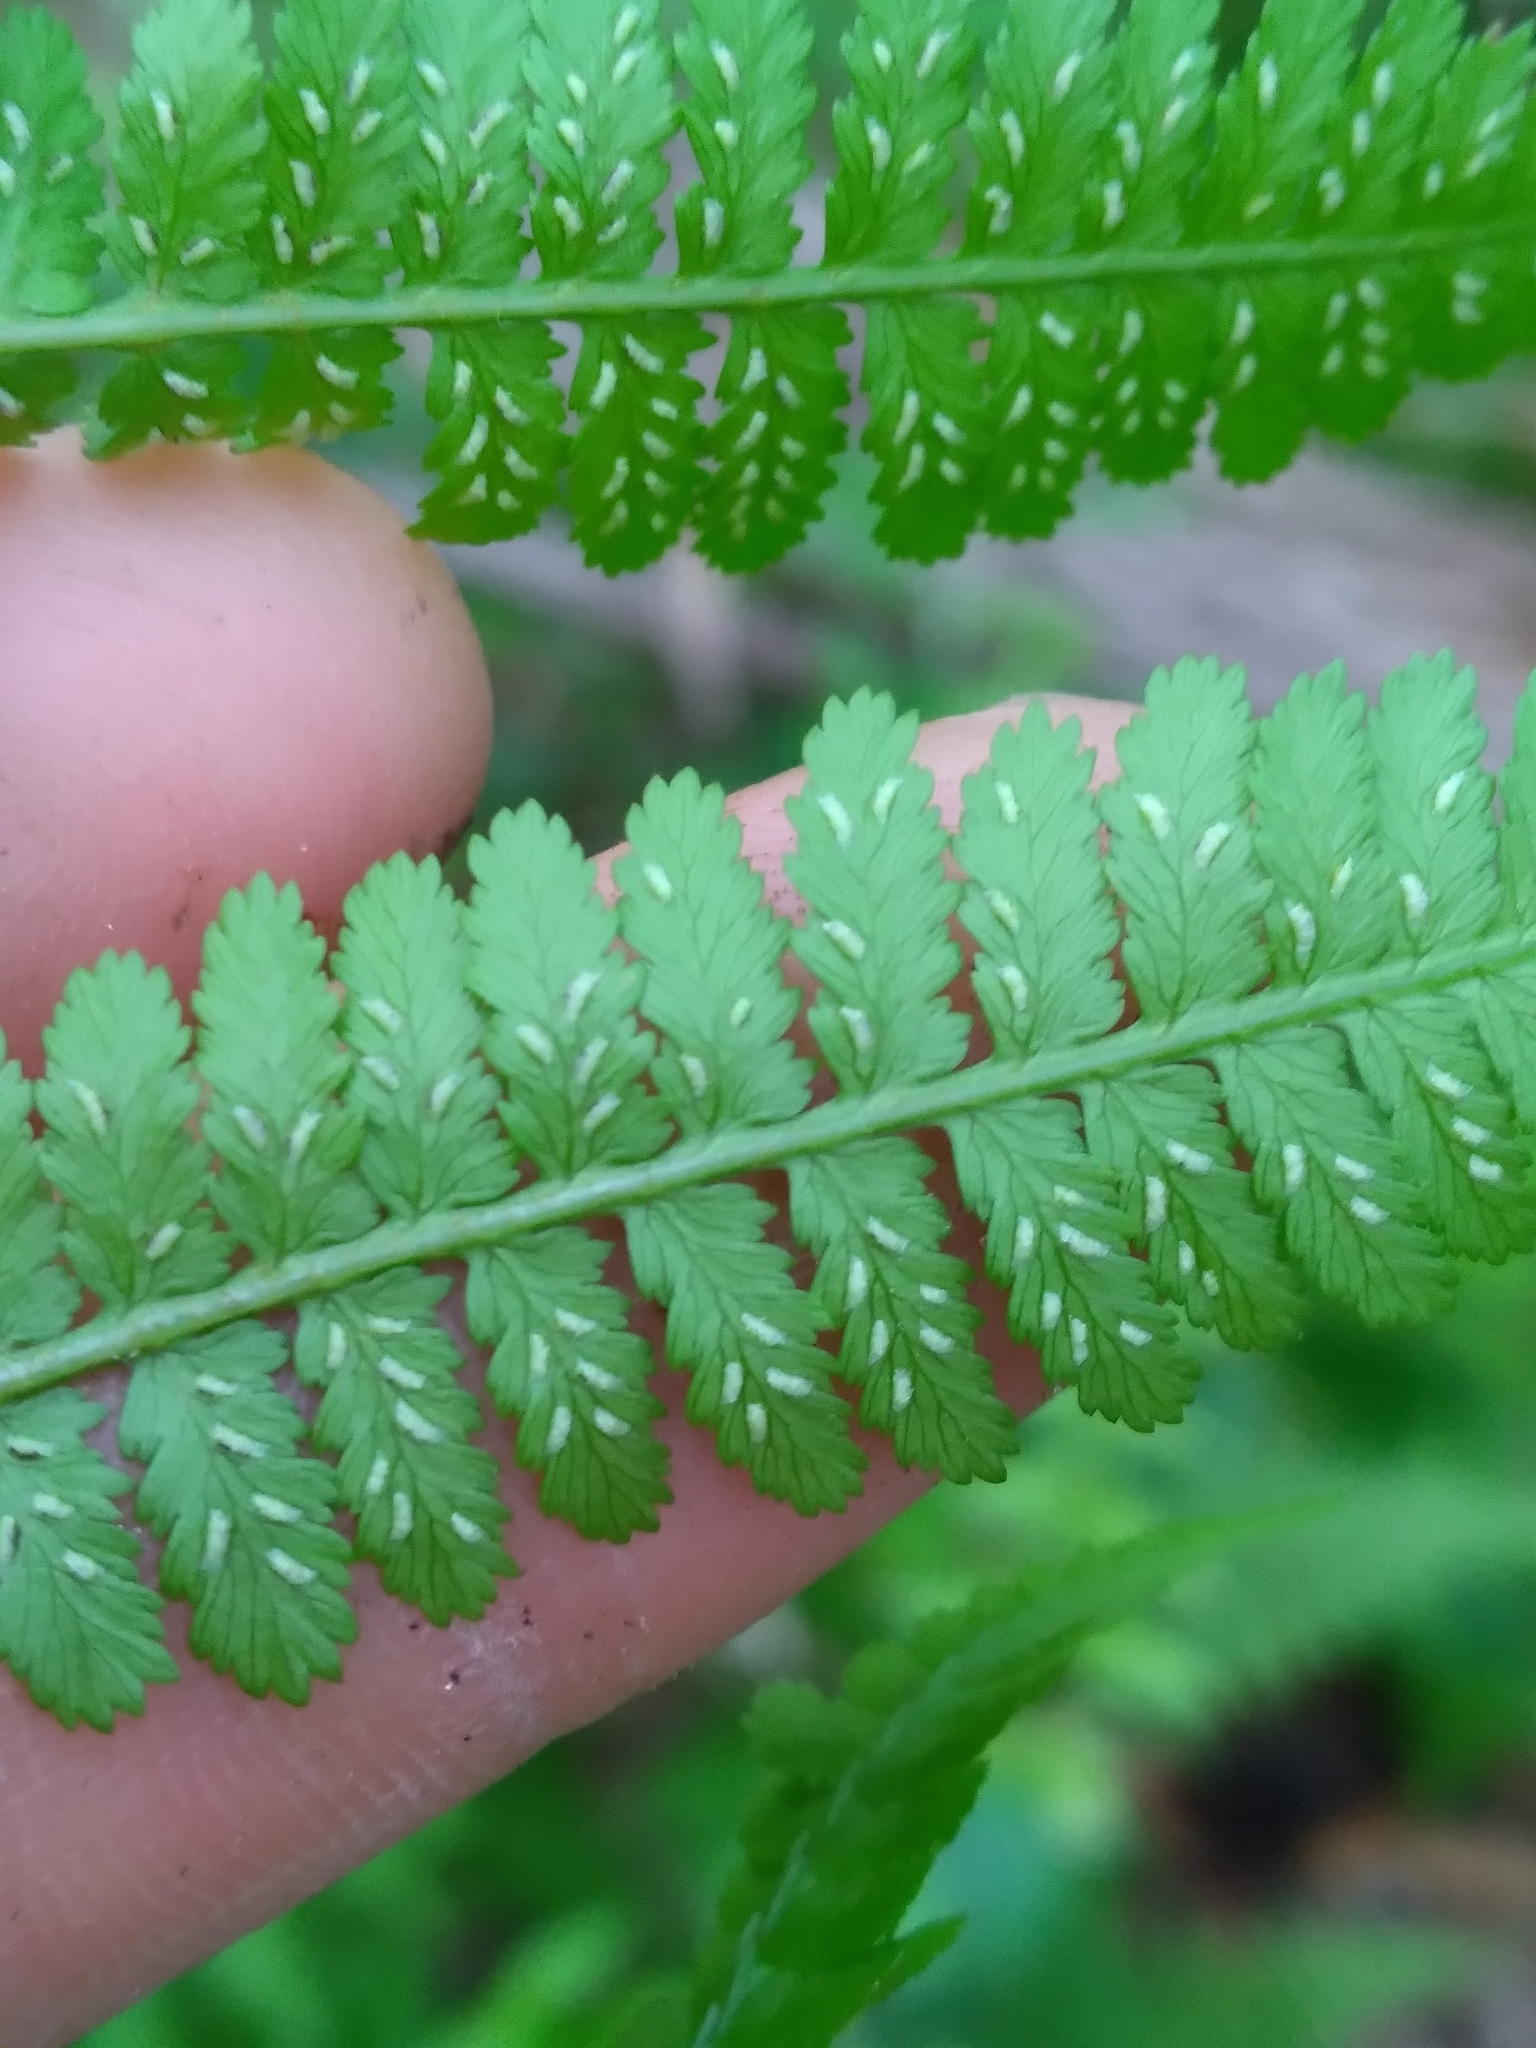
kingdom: Plantae
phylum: Tracheophyta
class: Polypodiopsida
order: Polypodiales
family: Athyriaceae
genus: Athyrium
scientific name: Athyrium asplenioides
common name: Southern lady fern
